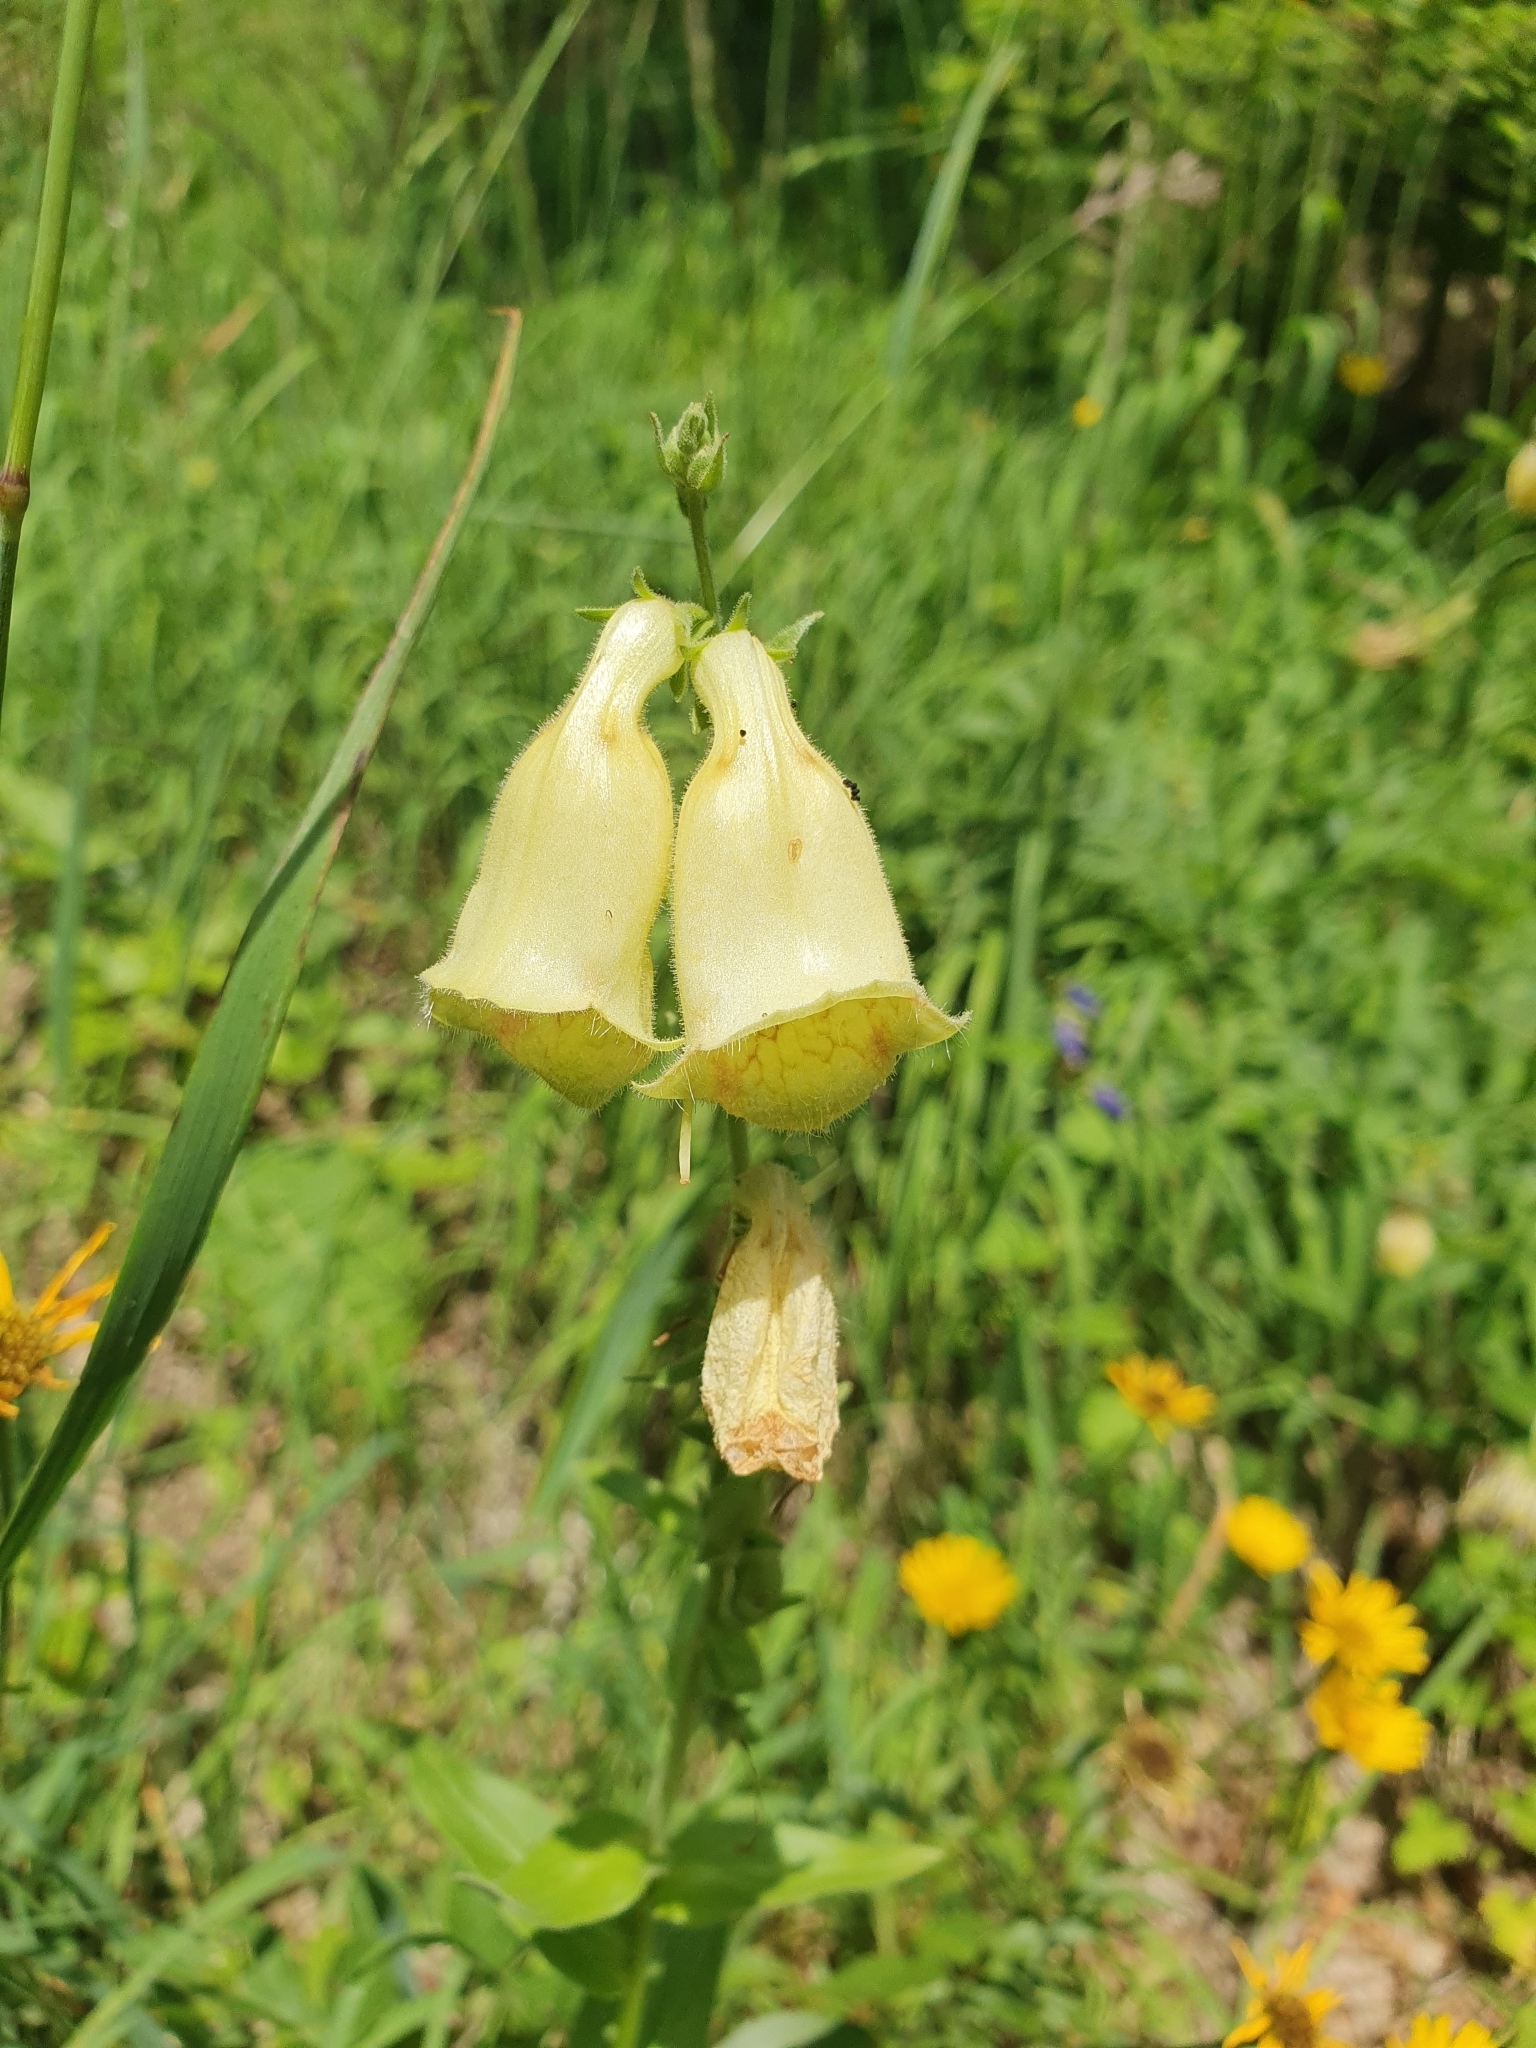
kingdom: Plantae
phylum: Tracheophyta
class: Magnoliopsida
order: Lamiales
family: Plantaginaceae
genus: Digitalis
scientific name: Digitalis grandiflora
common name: Yellow foxglove
